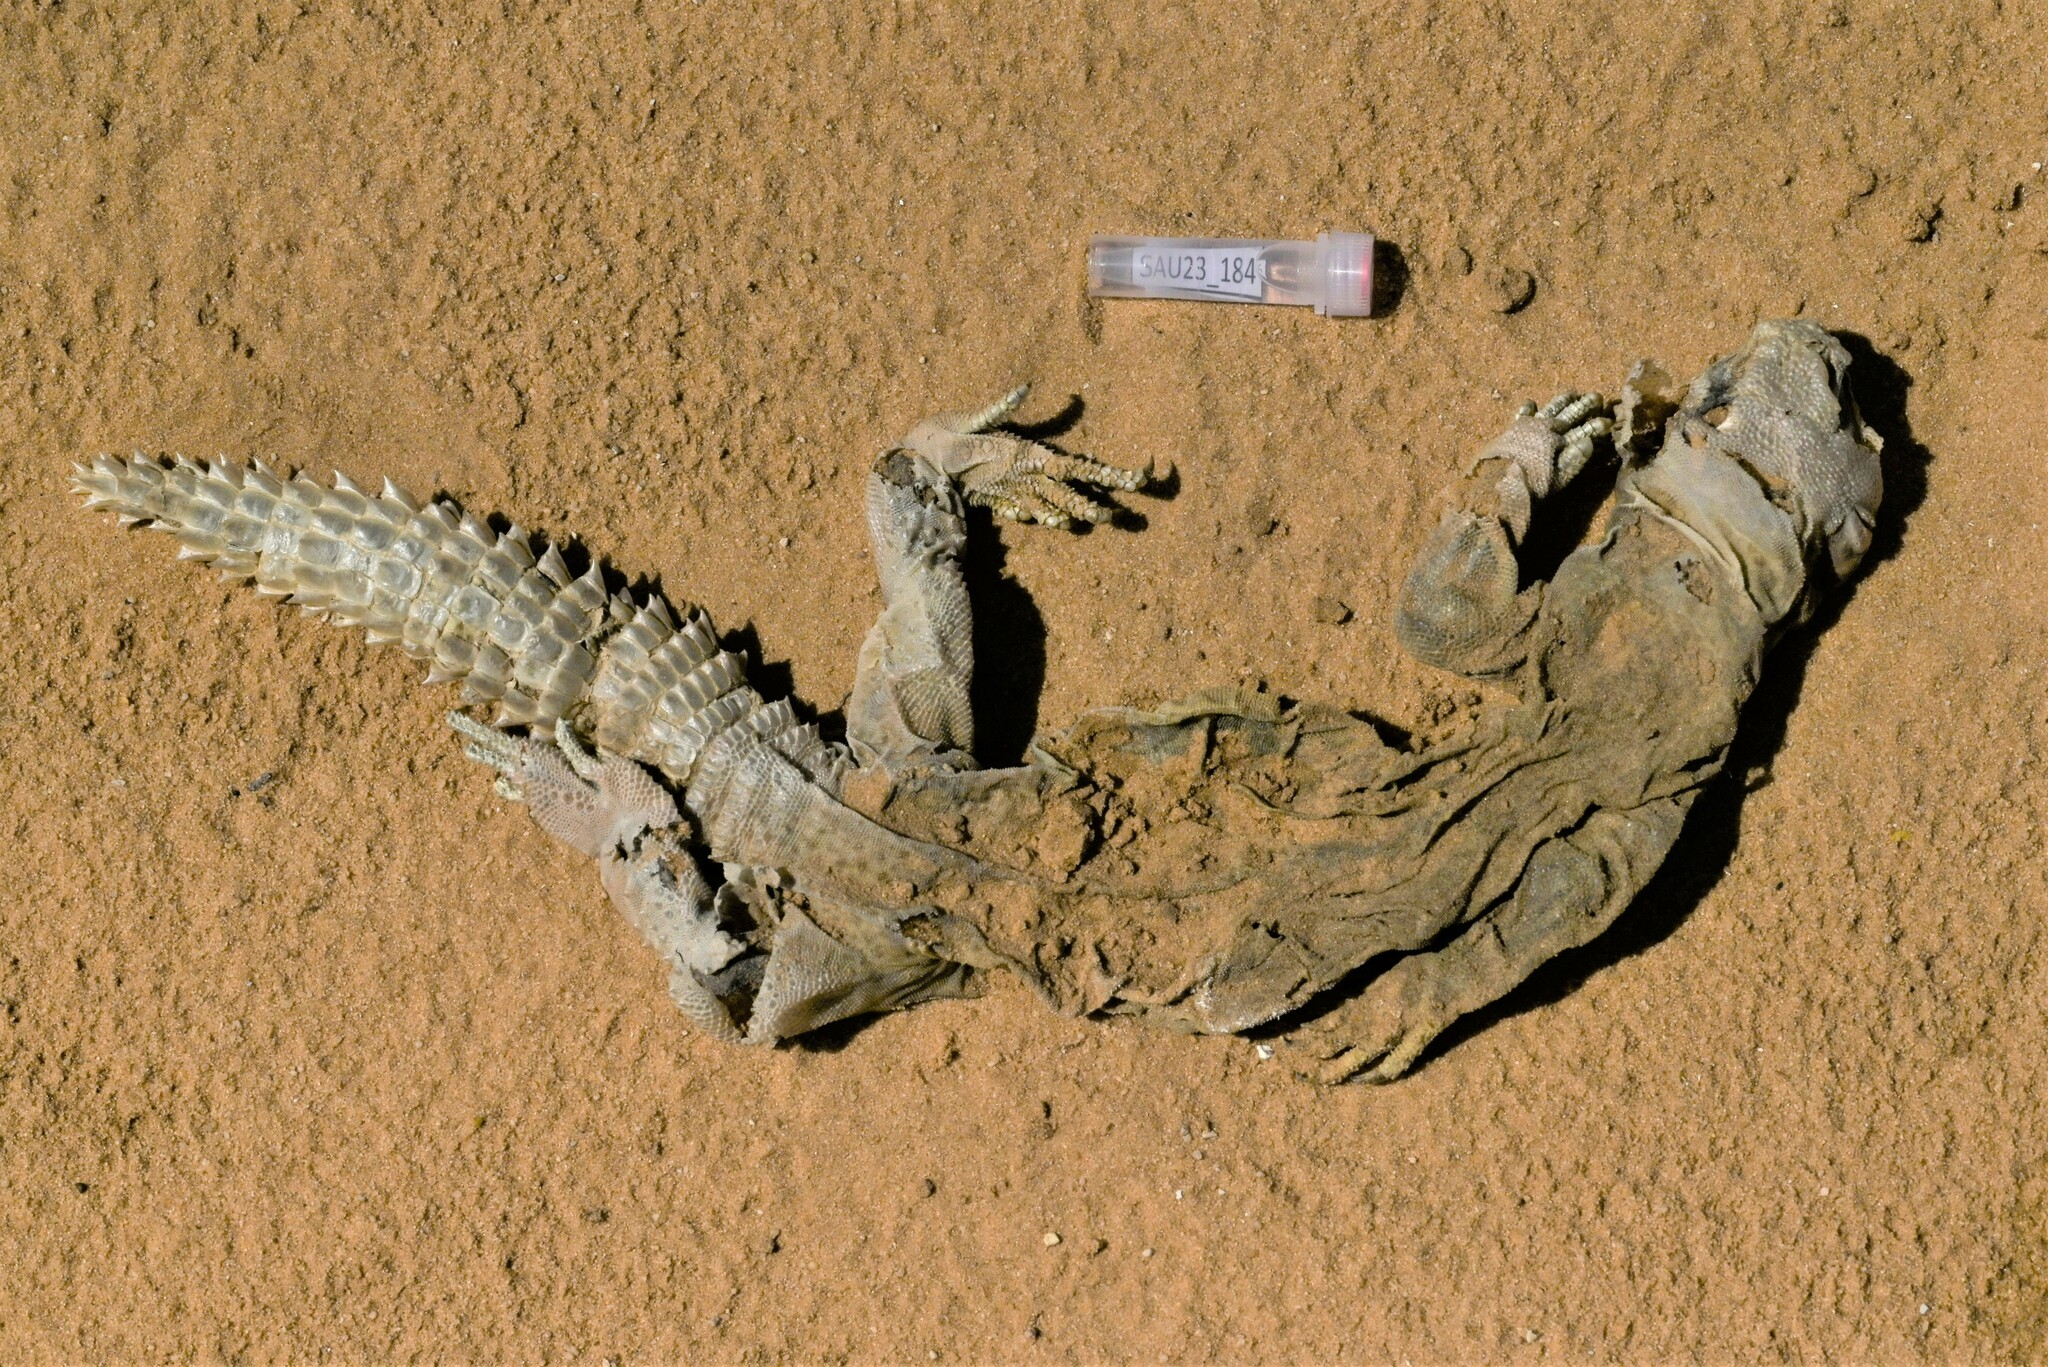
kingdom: Animalia
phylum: Chordata
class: Squamata
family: Agamidae
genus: Uromastyx
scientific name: Uromastyx aegyptia
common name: Egyptian mastigure
